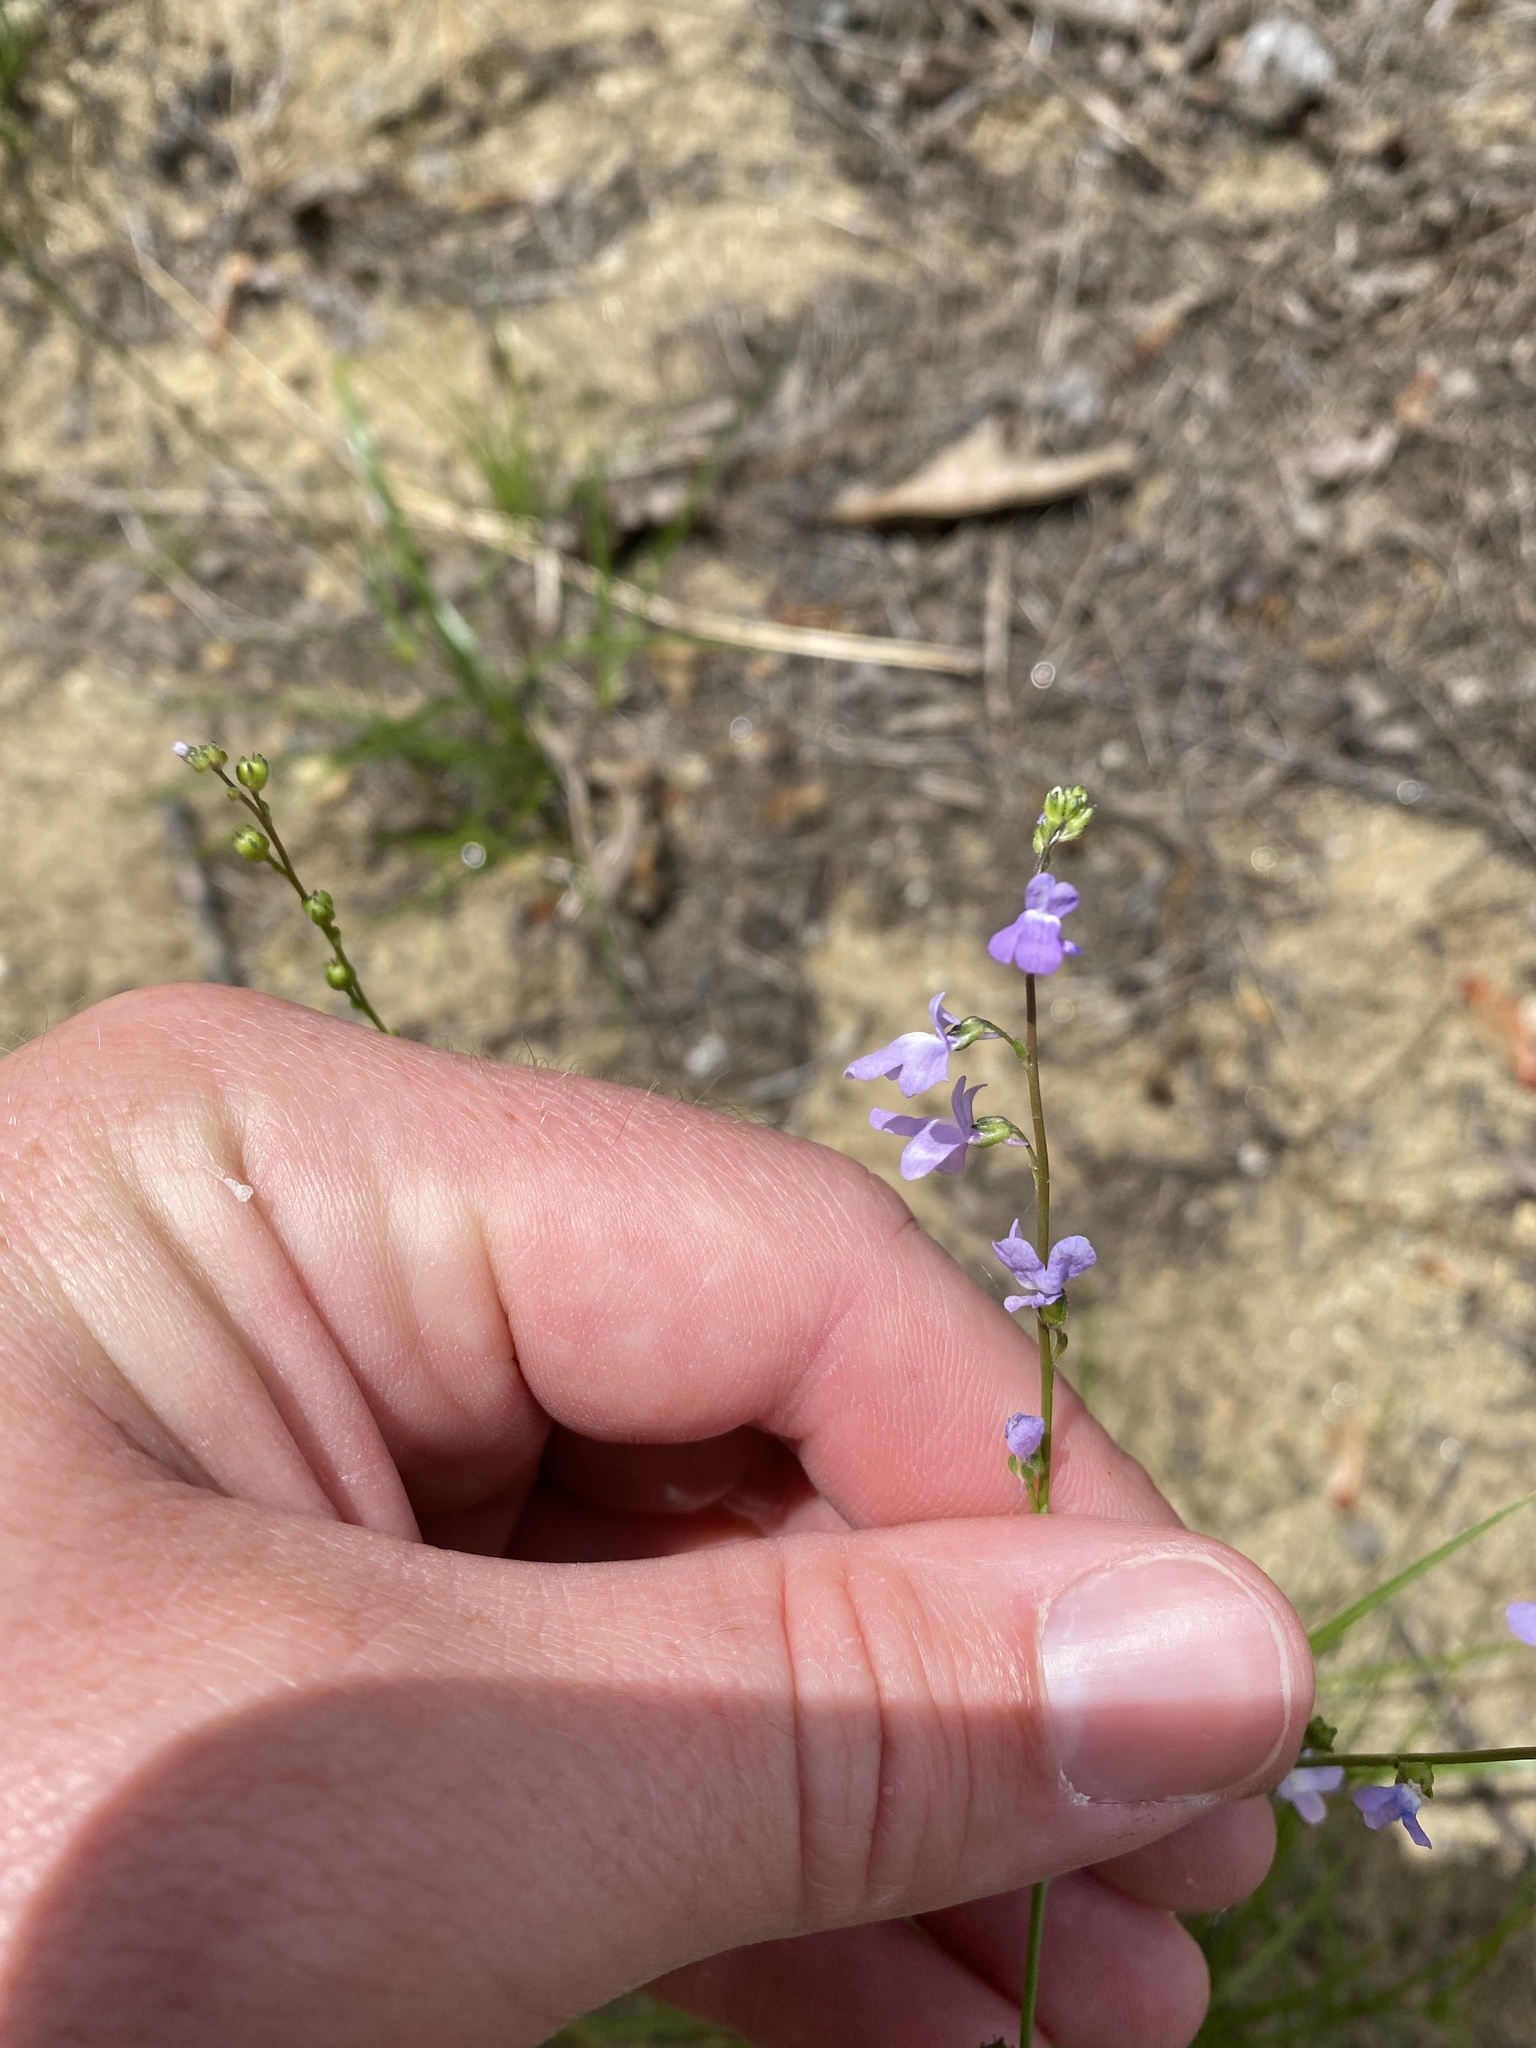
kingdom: Plantae
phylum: Tracheophyta
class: Magnoliopsida
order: Lamiales
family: Plantaginaceae
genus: Nuttallanthus
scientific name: Nuttallanthus canadensis
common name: Blue toadflax
